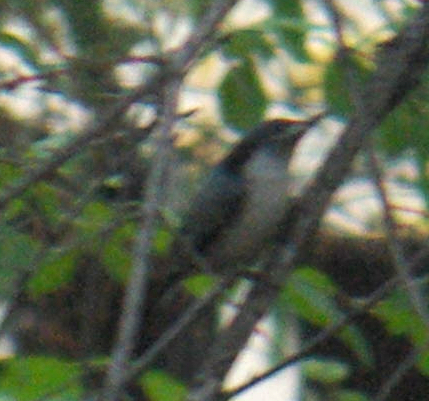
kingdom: Animalia
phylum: Chordata
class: Aves
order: Passeriformes
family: Sittidae
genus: Sitta
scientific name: Sitta carolinensis
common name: White-breasted nuthatch
